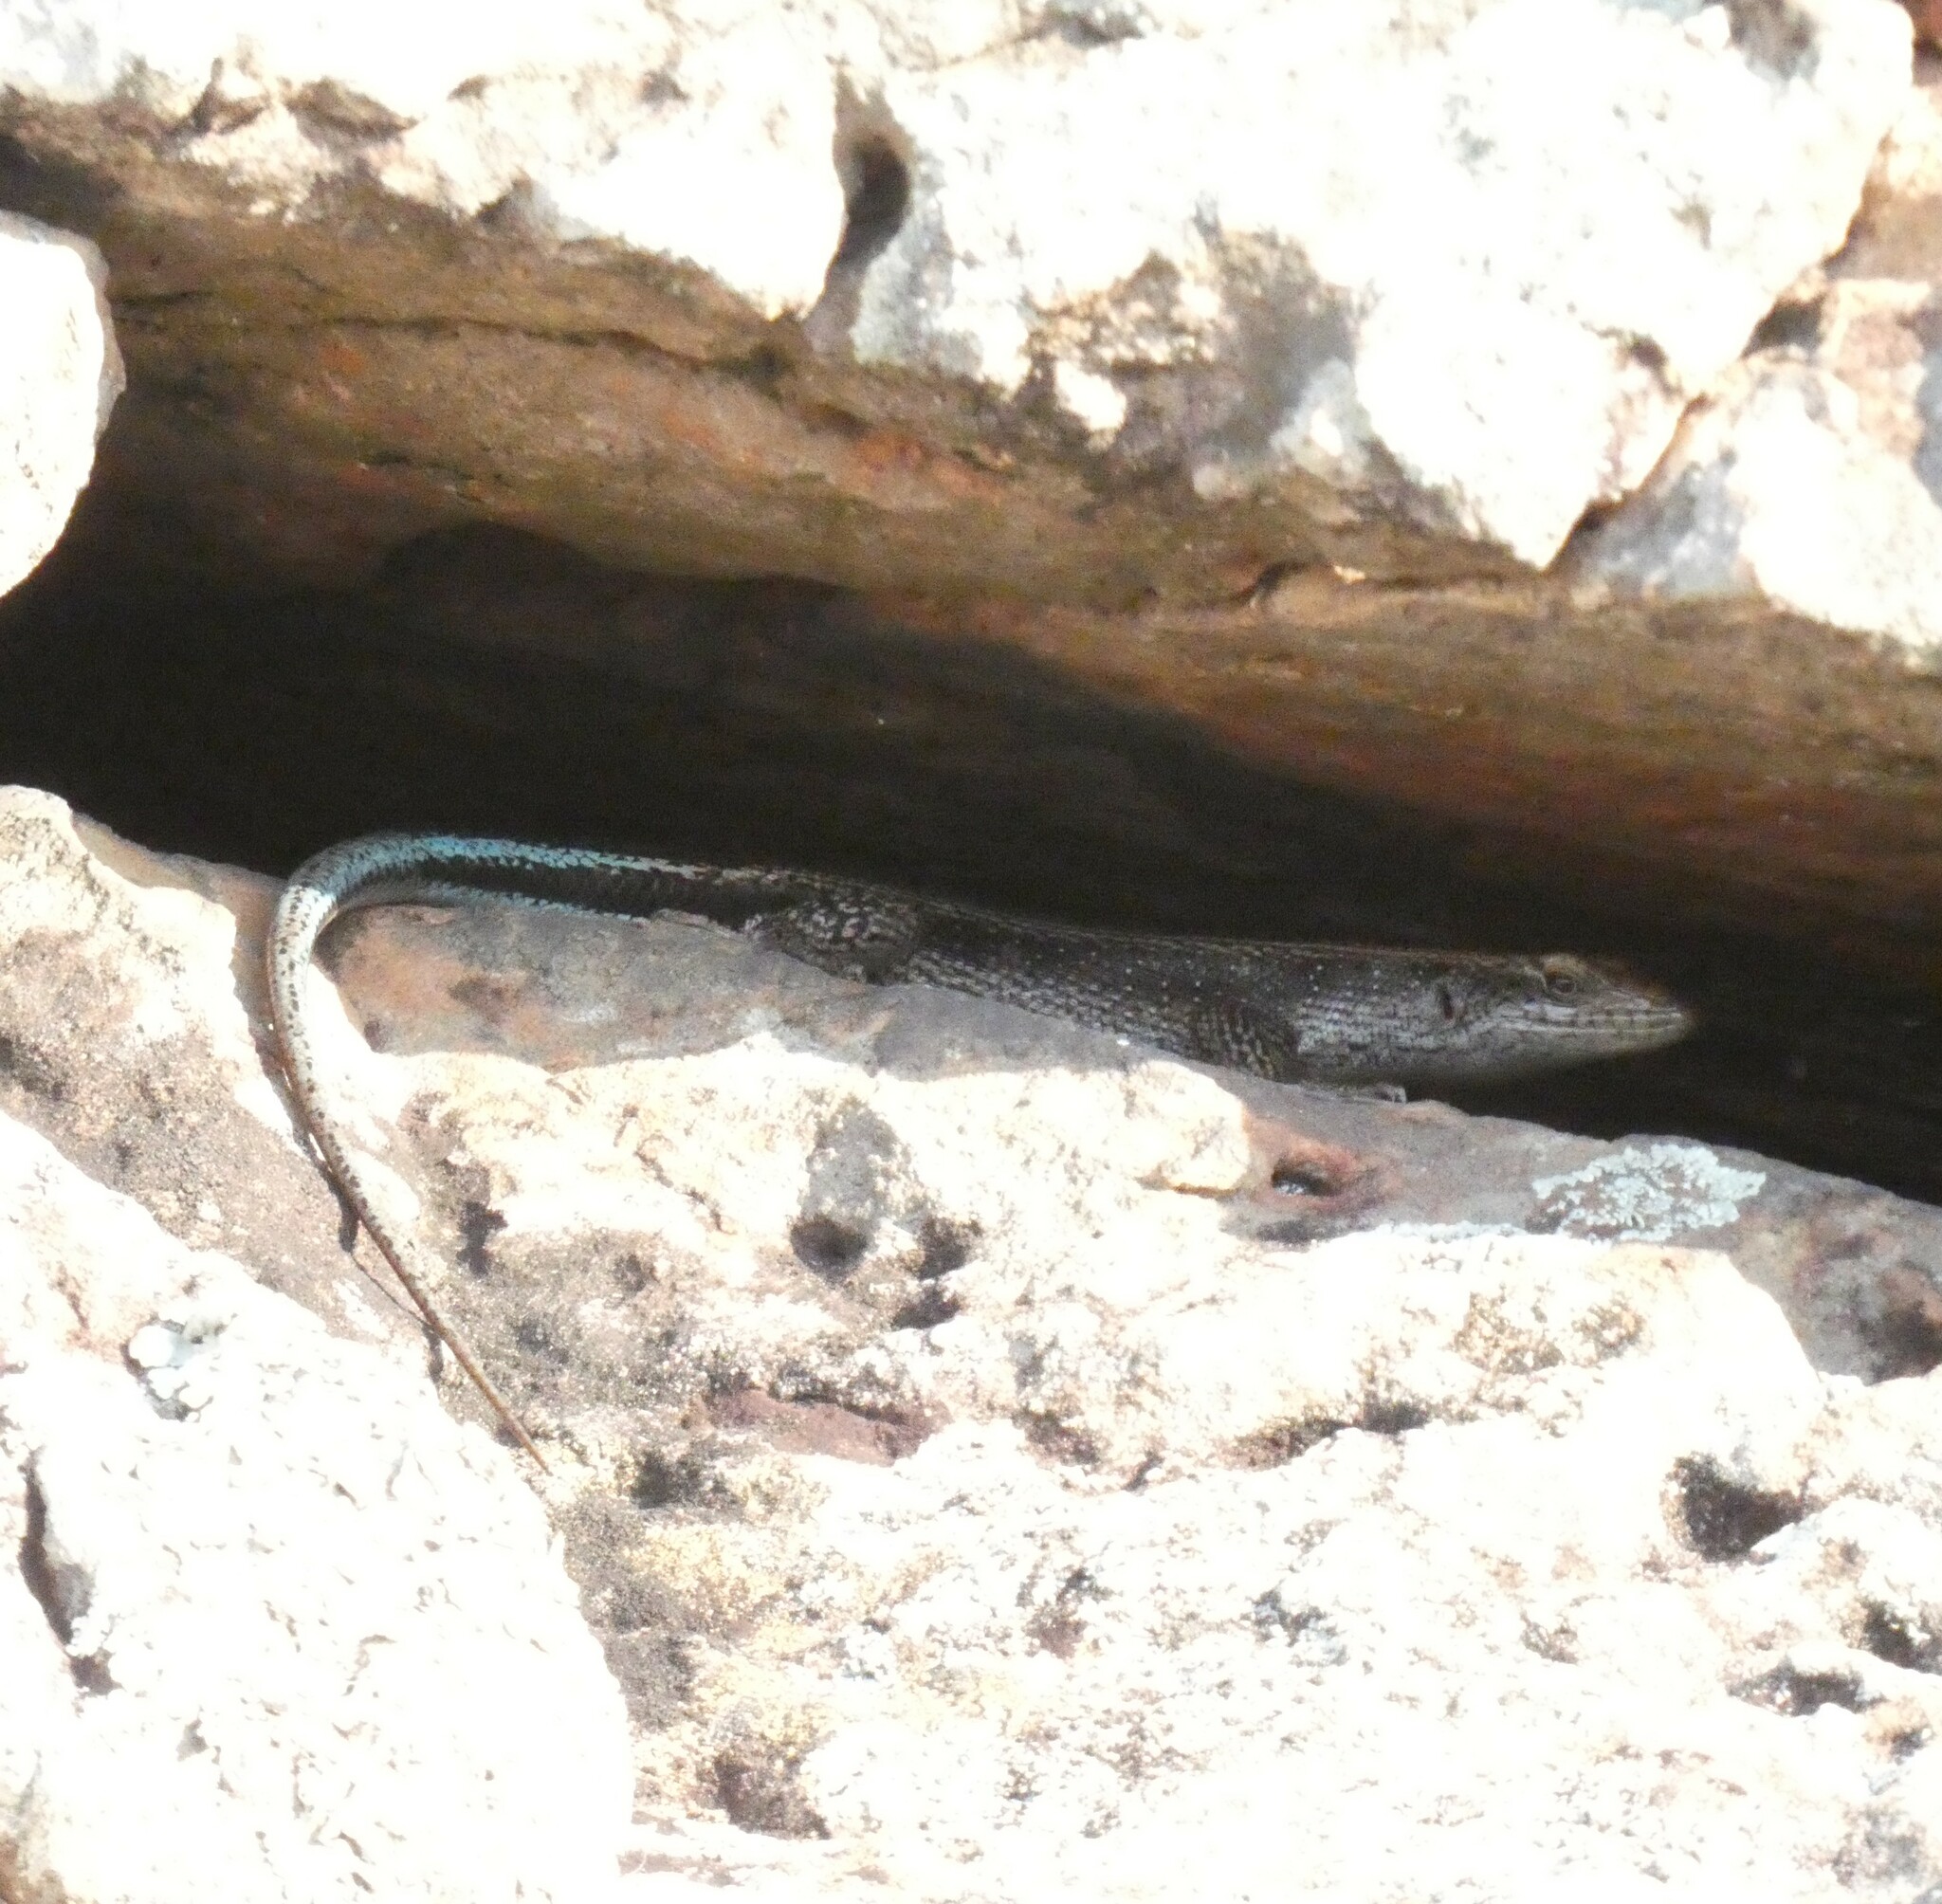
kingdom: Animalia
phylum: Chordata
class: Squamata
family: Scincidae
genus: Trachylepis
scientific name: Trachylepis margaritifera
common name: Rainbow skink
